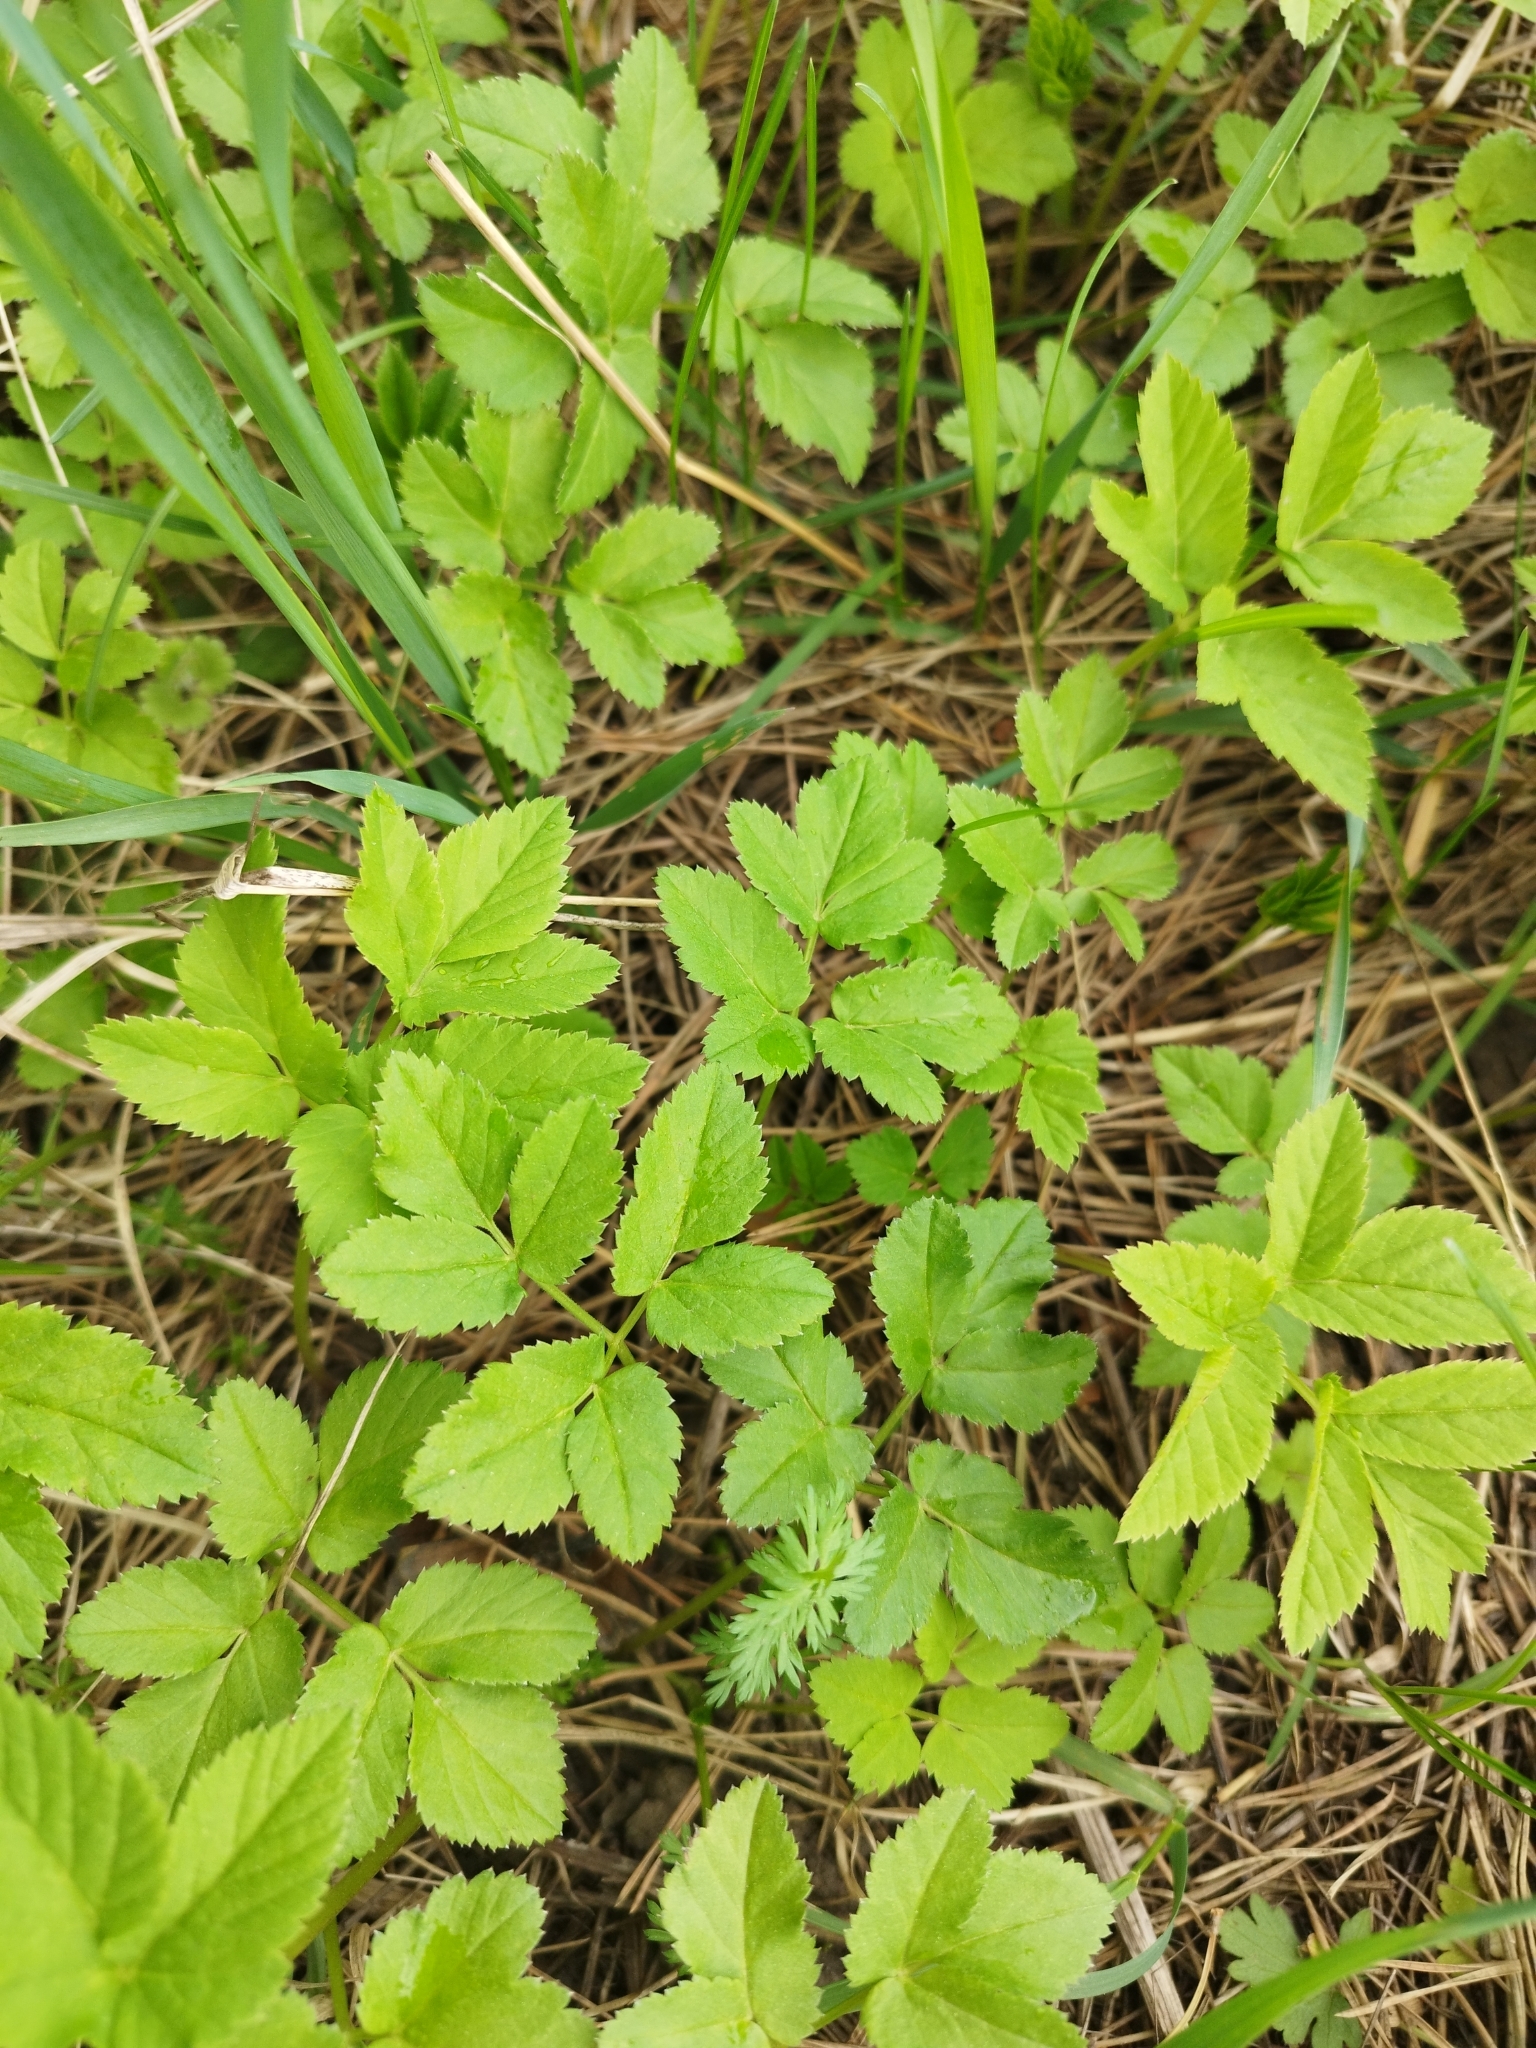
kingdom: Plantae
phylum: Tracheophyta
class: Magnoliopsida
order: Apiales
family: Apiaceae
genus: Aegopodium
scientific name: Aegopodium podagraria
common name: Ground-elder
